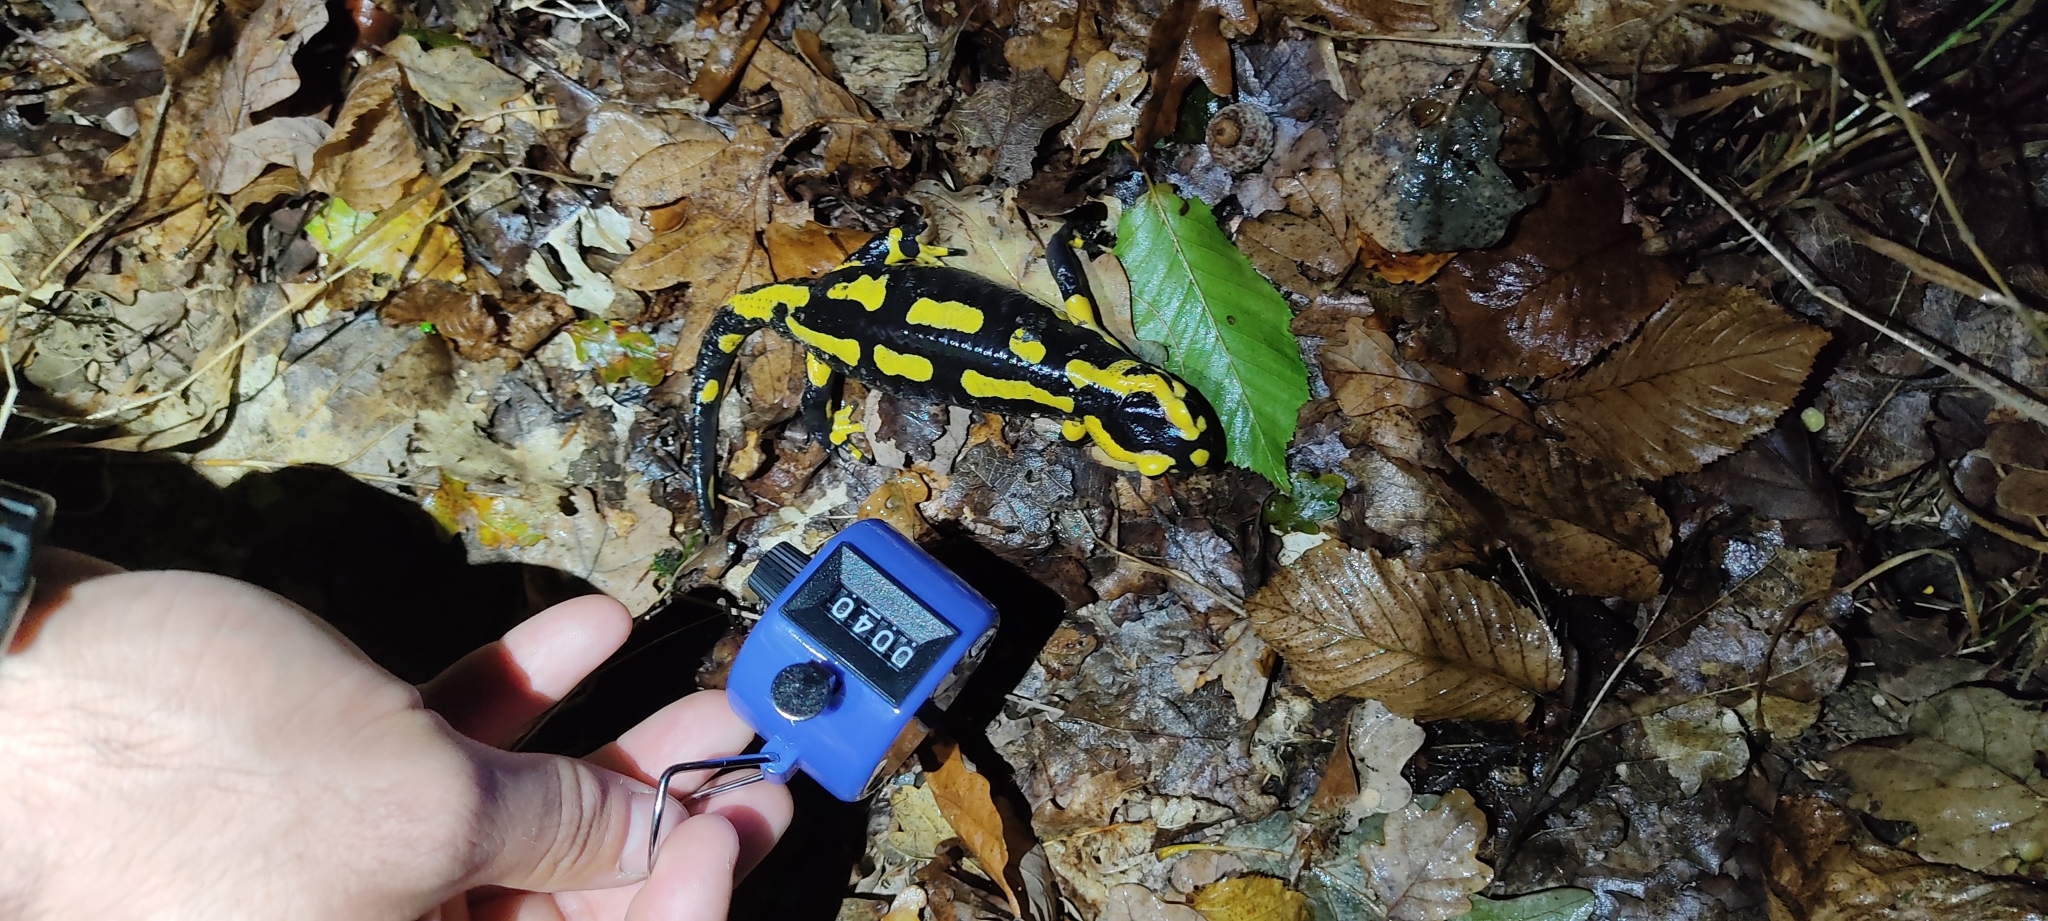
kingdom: Animalia
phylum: Chordata
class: Amphibia
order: Caudata
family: Salamandridae
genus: Salamandra
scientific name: Salamandra salamandra
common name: Fire salamander
